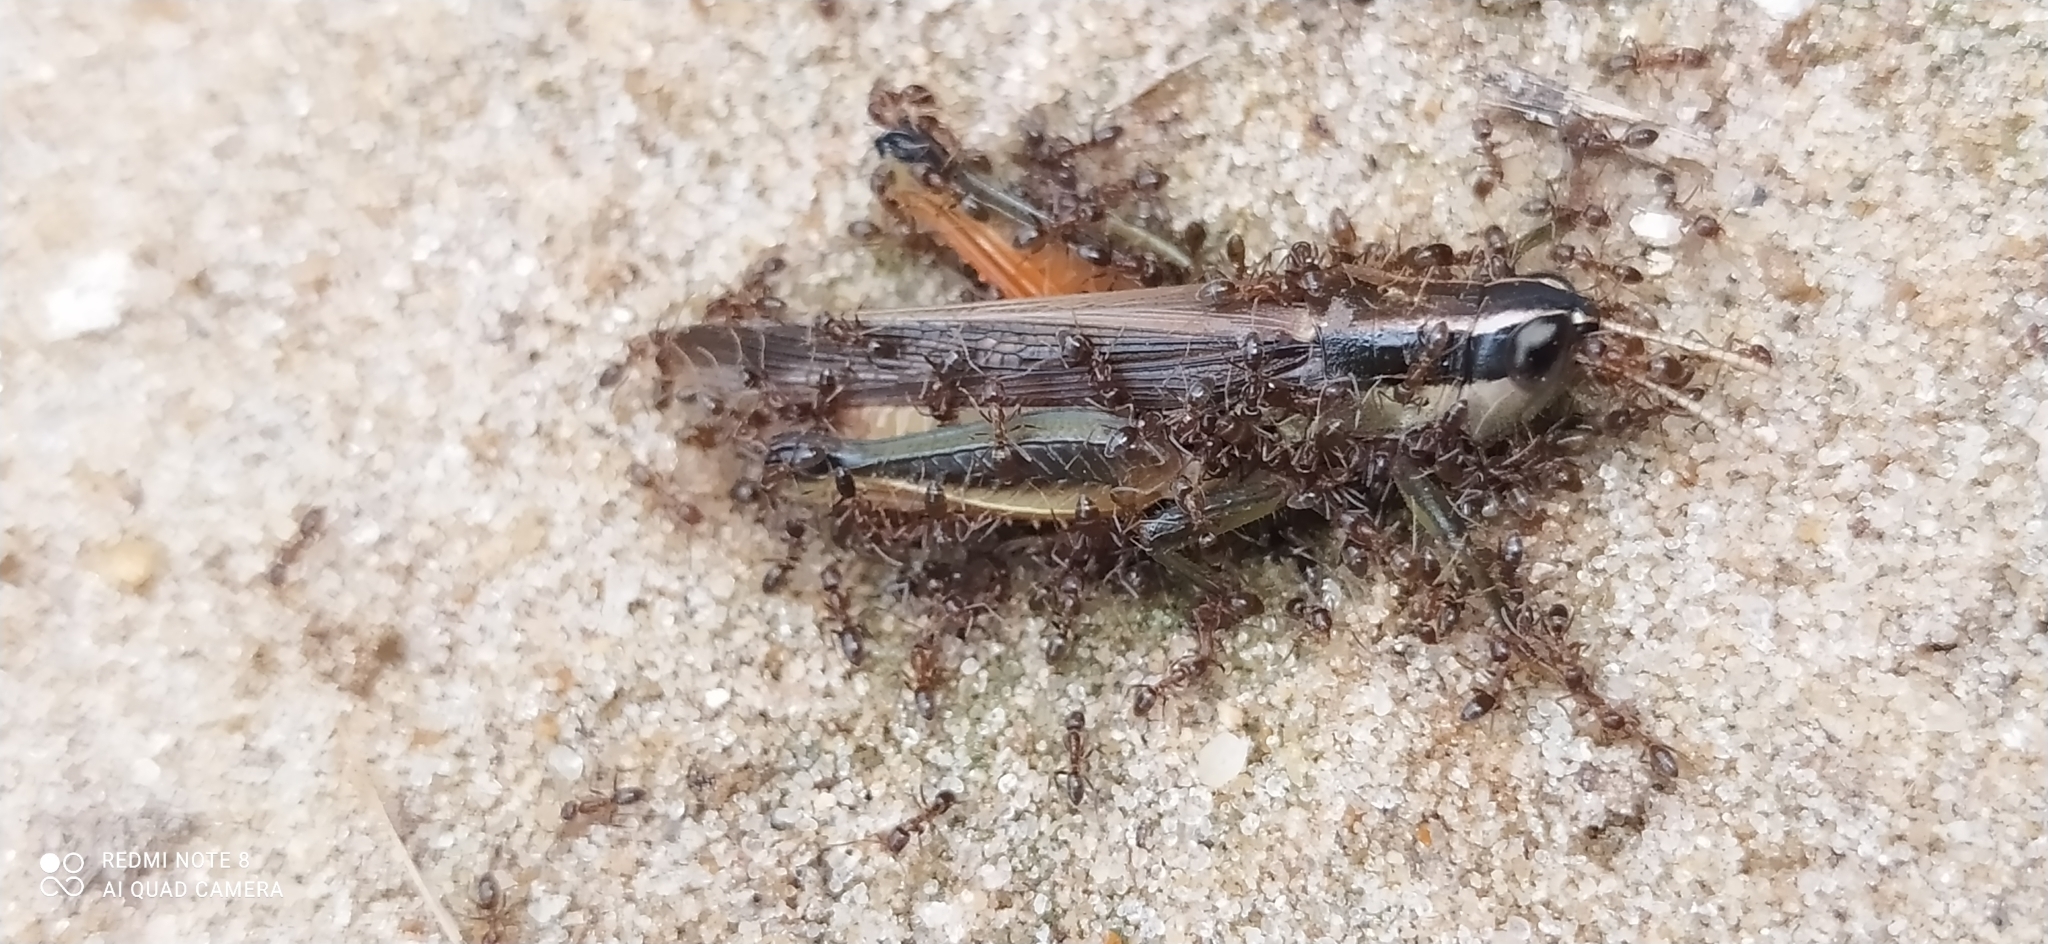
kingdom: Animalia
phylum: Arthropoda
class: Insecta
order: Hymenoptera
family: Formicidae
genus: Linepithema
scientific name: Linepithema humile
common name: Argentine ant
